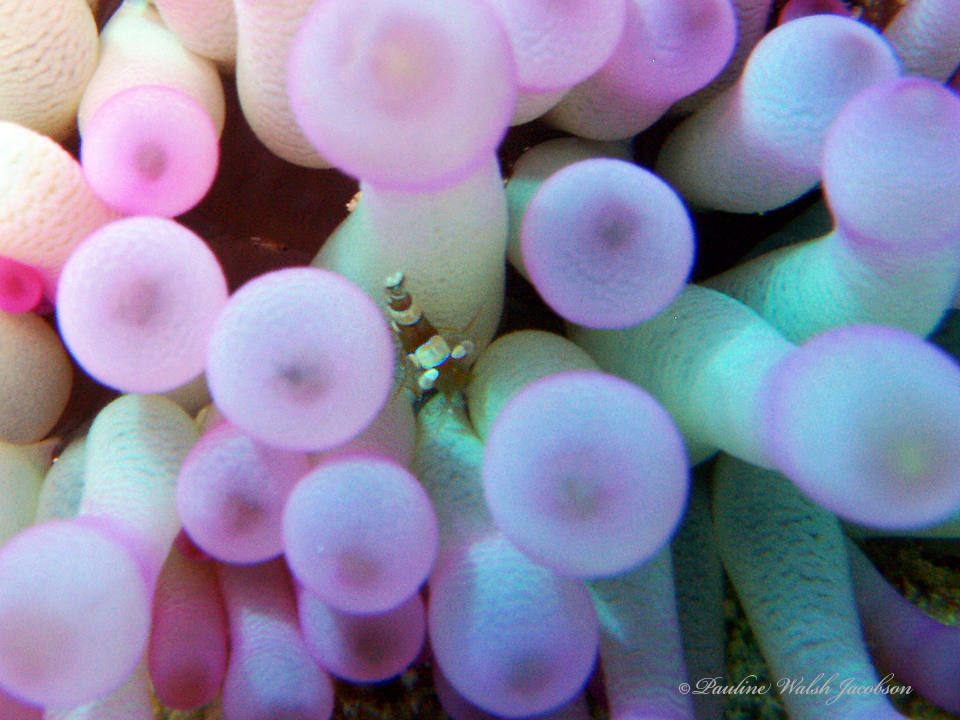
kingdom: Animalia
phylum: Arthropoda
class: Malacostraca
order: Decapoda
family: Thoridae
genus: Thor
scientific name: Thor dicaprio
